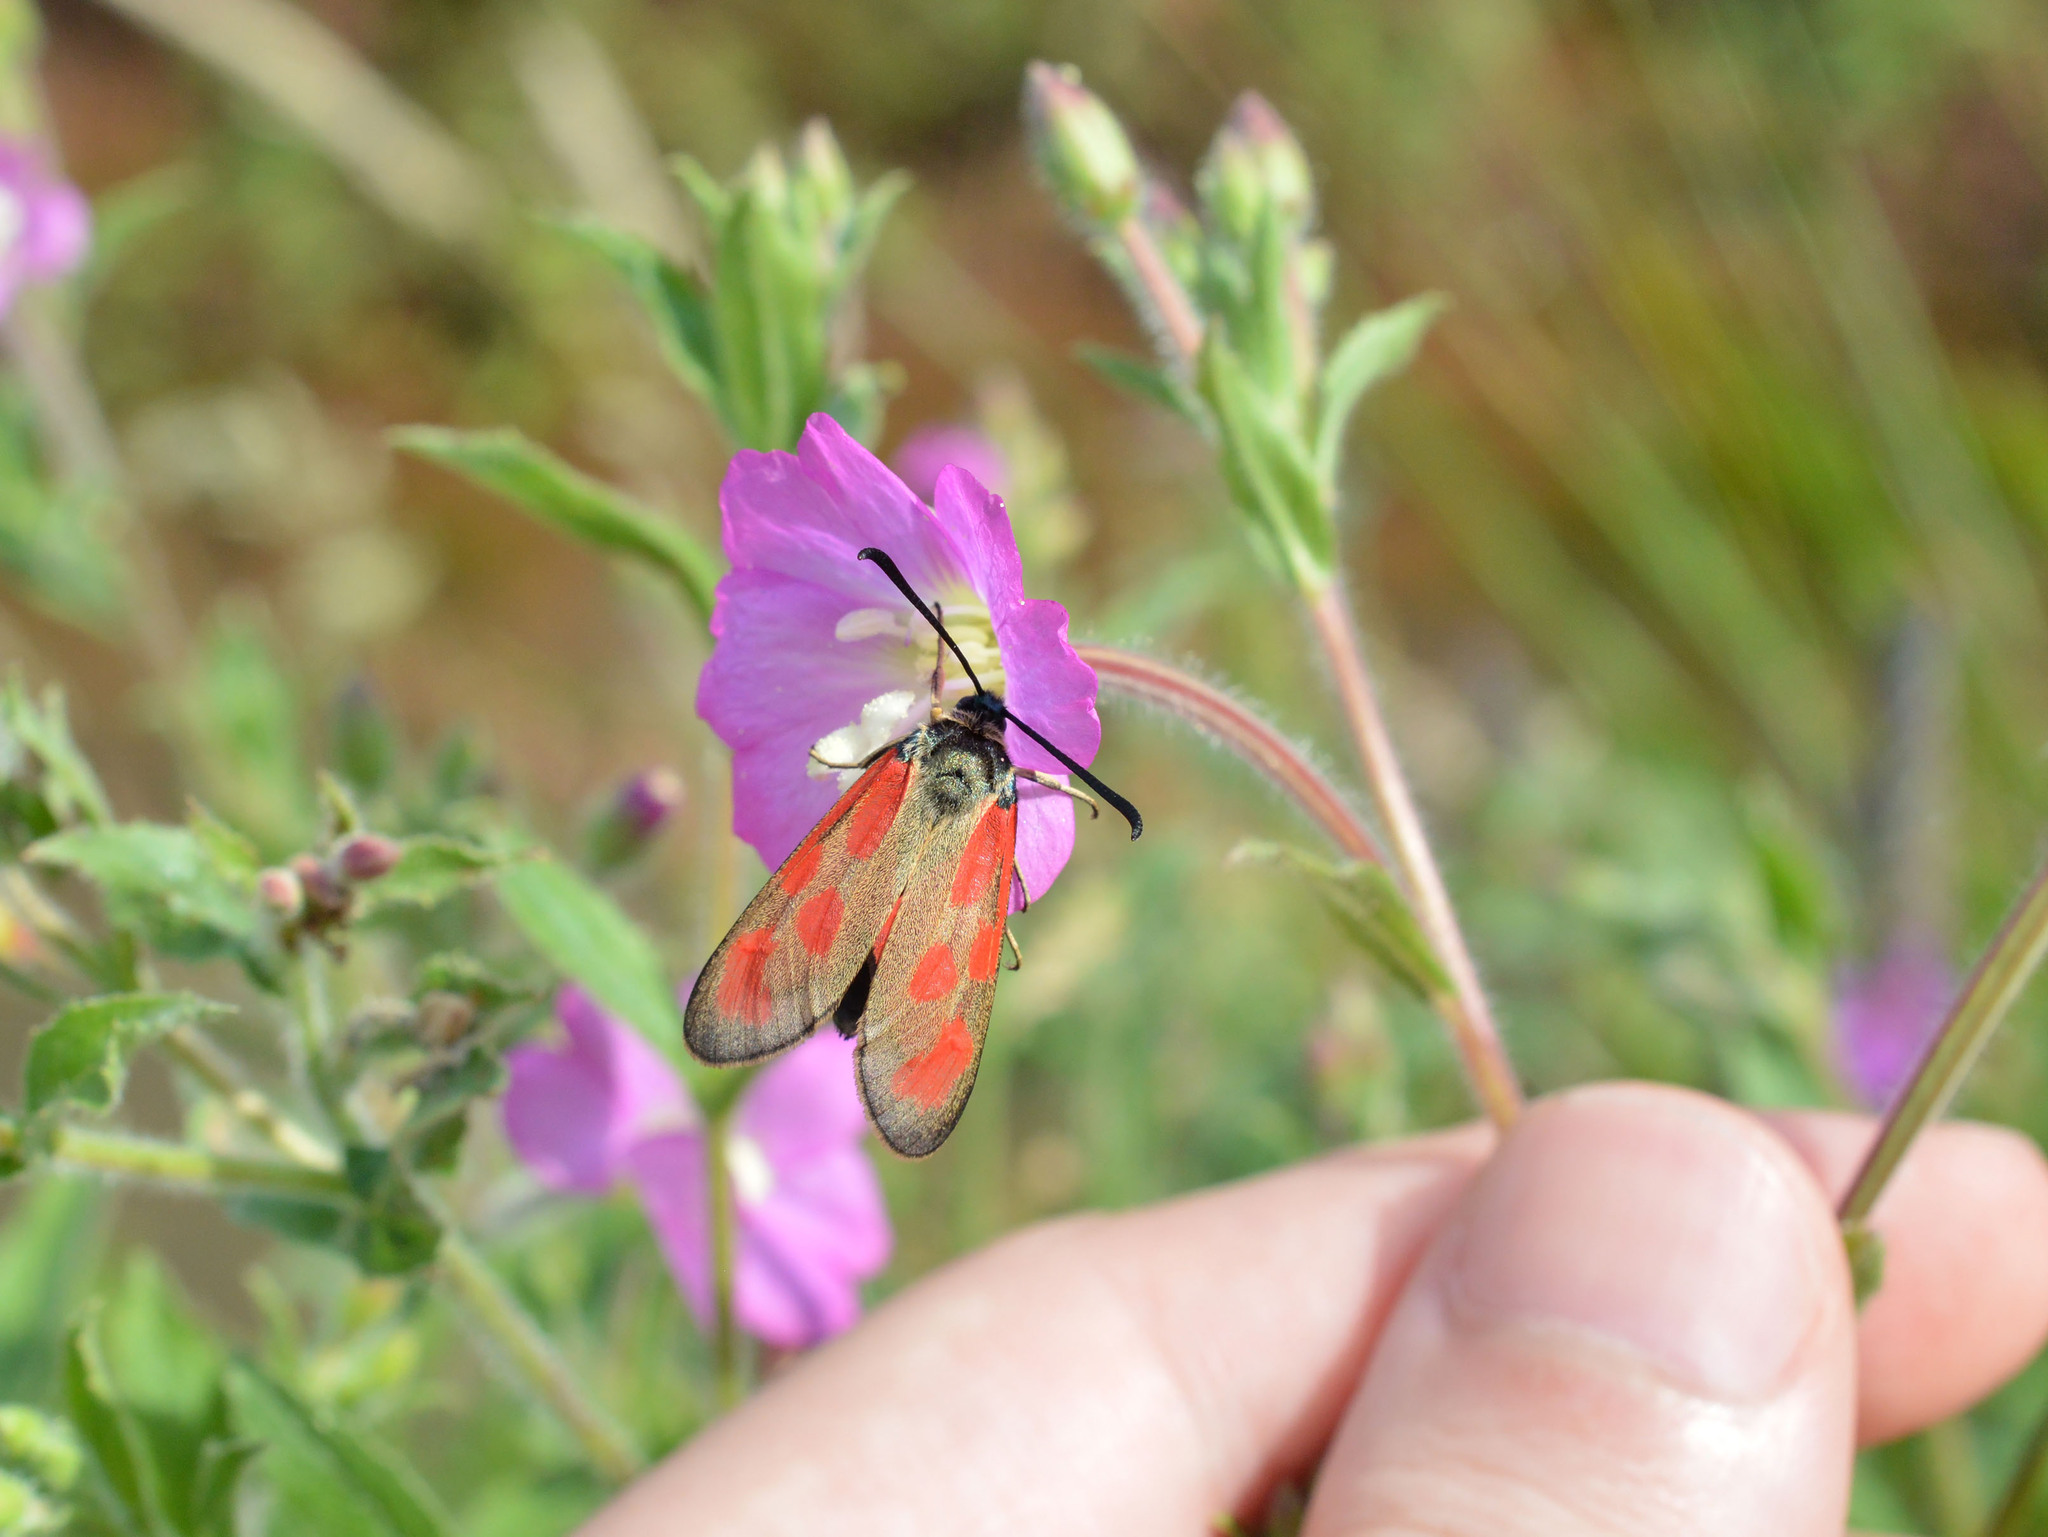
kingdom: Animalia
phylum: Arthropoda
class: Insecta
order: Lepidoptera
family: Zygaenidae
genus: Zygaena
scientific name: Zygaena loti
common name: Slender scotch burnet
